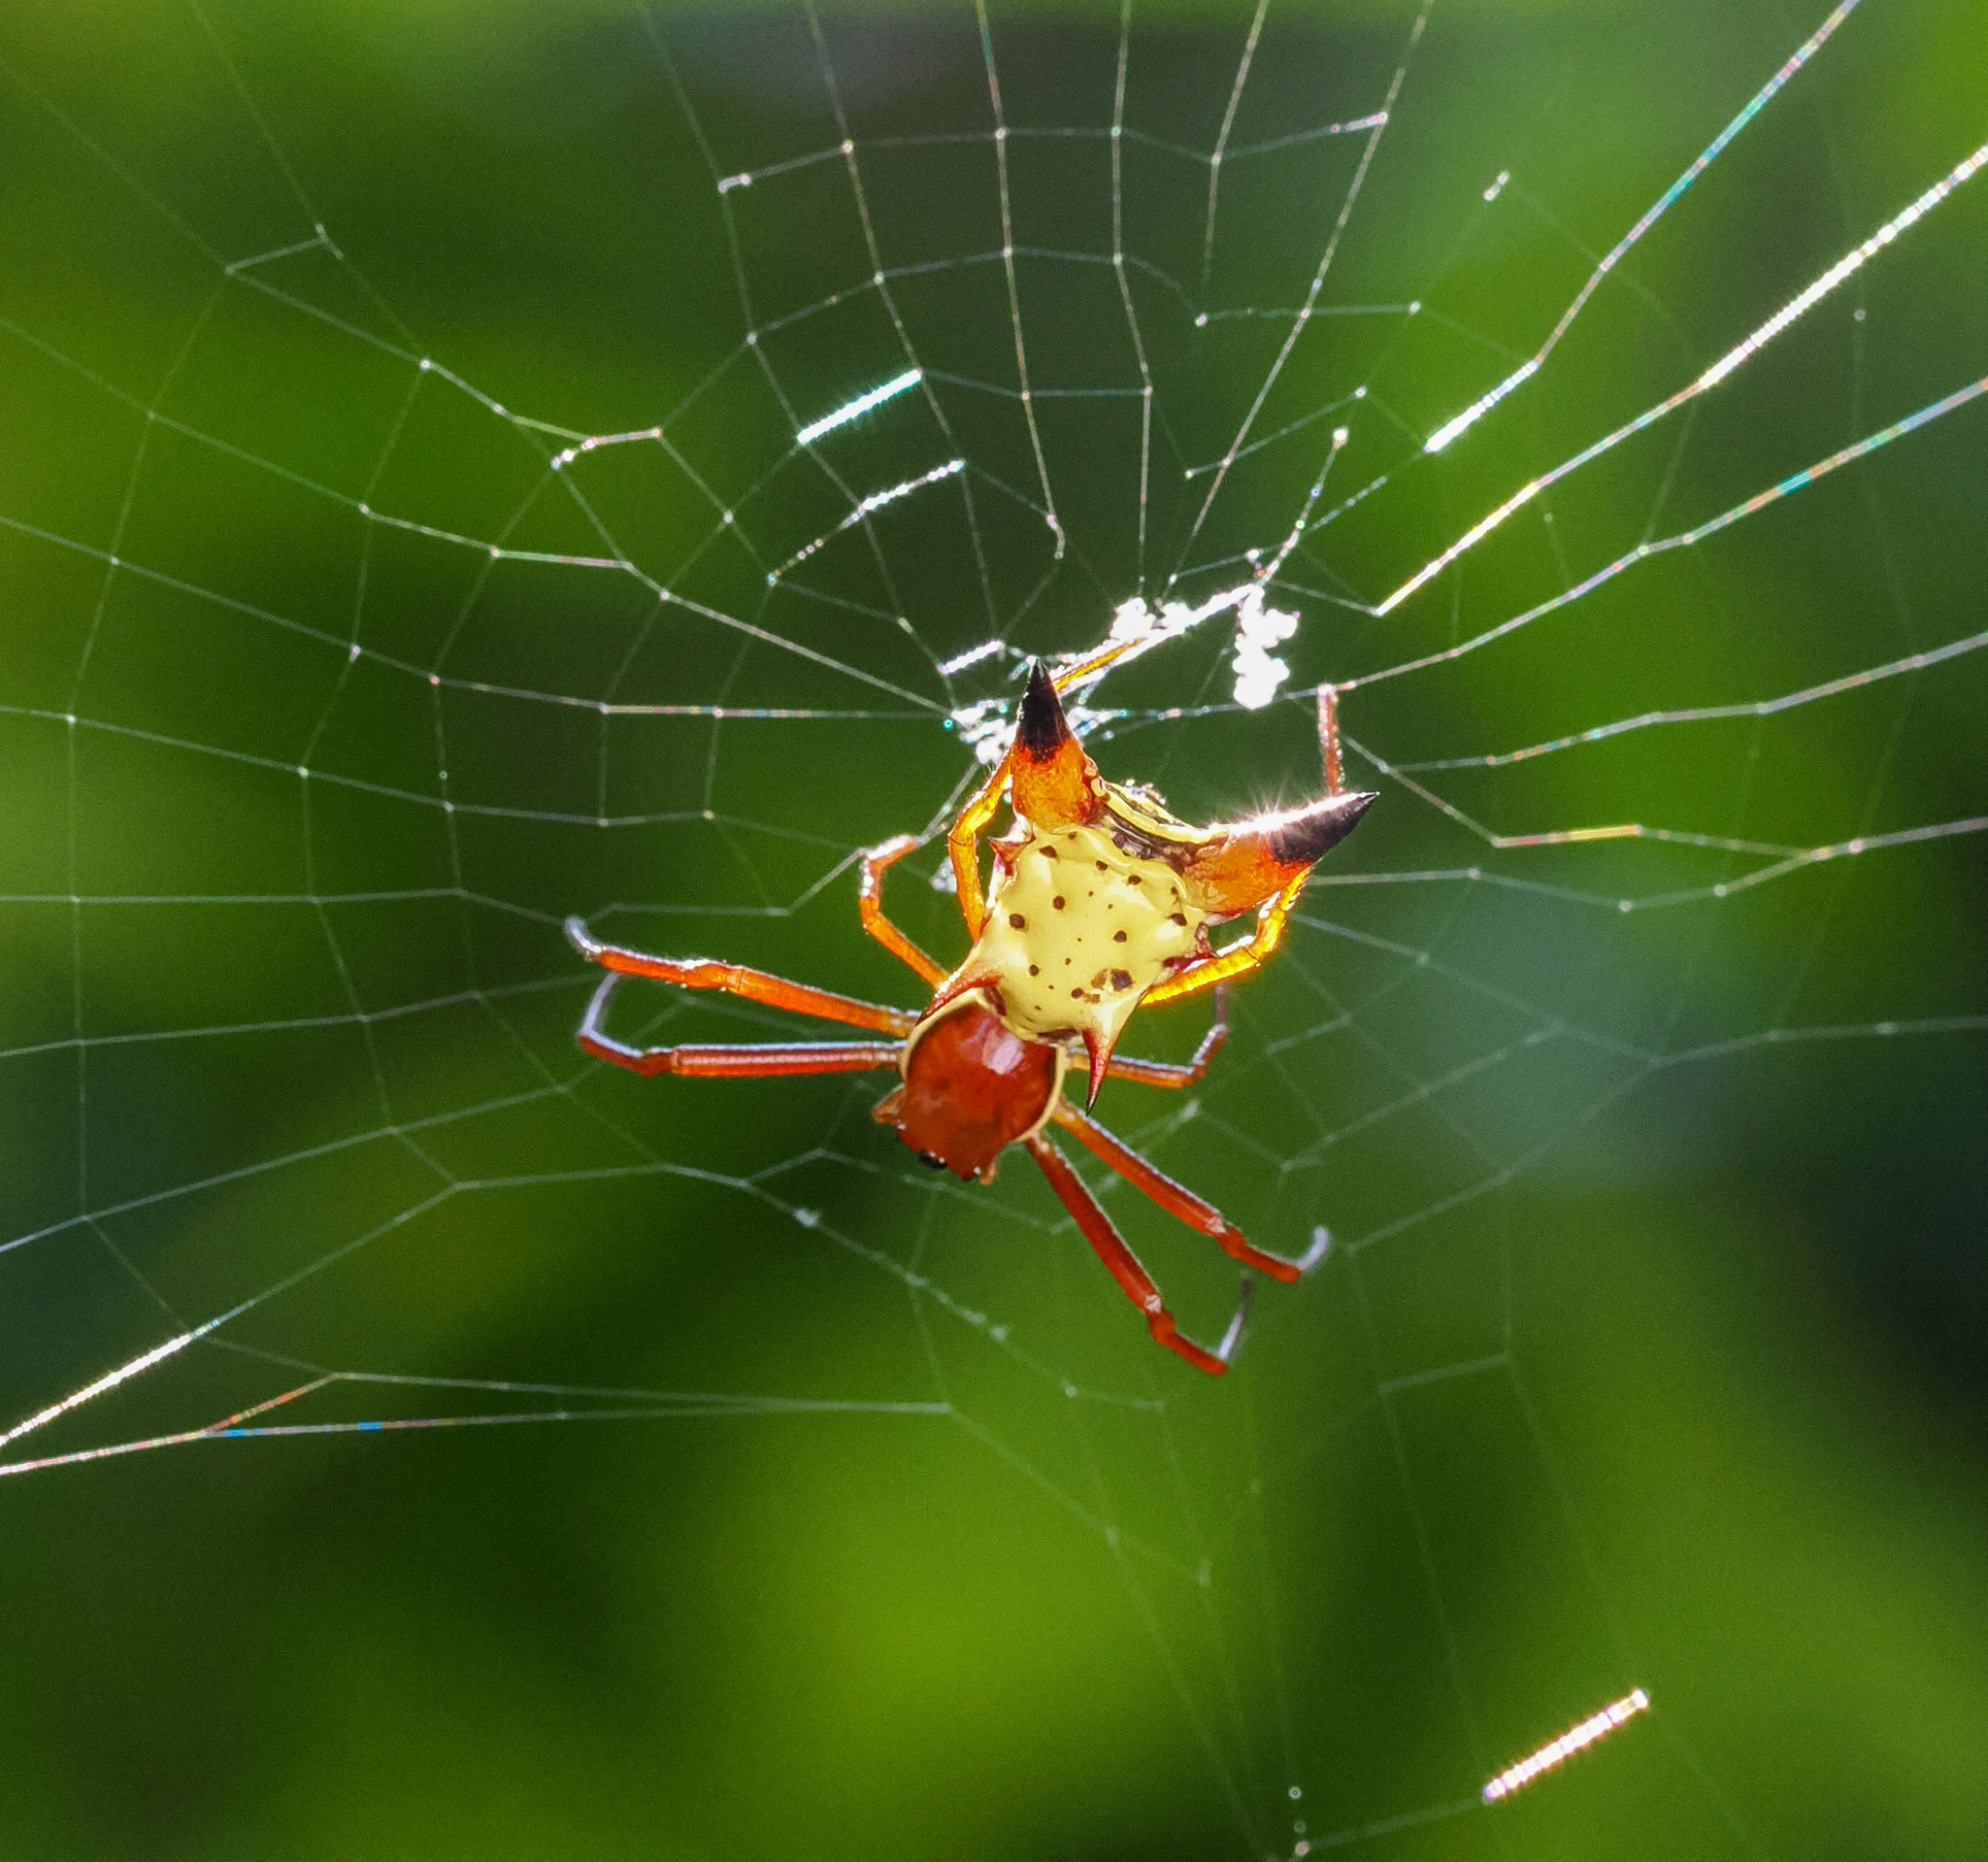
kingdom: Animalia
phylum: Arthropoda
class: Arachnida
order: Araneae
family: Araneidae
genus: Micrathena
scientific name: Micrathena sagittata
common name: Orb weavers
